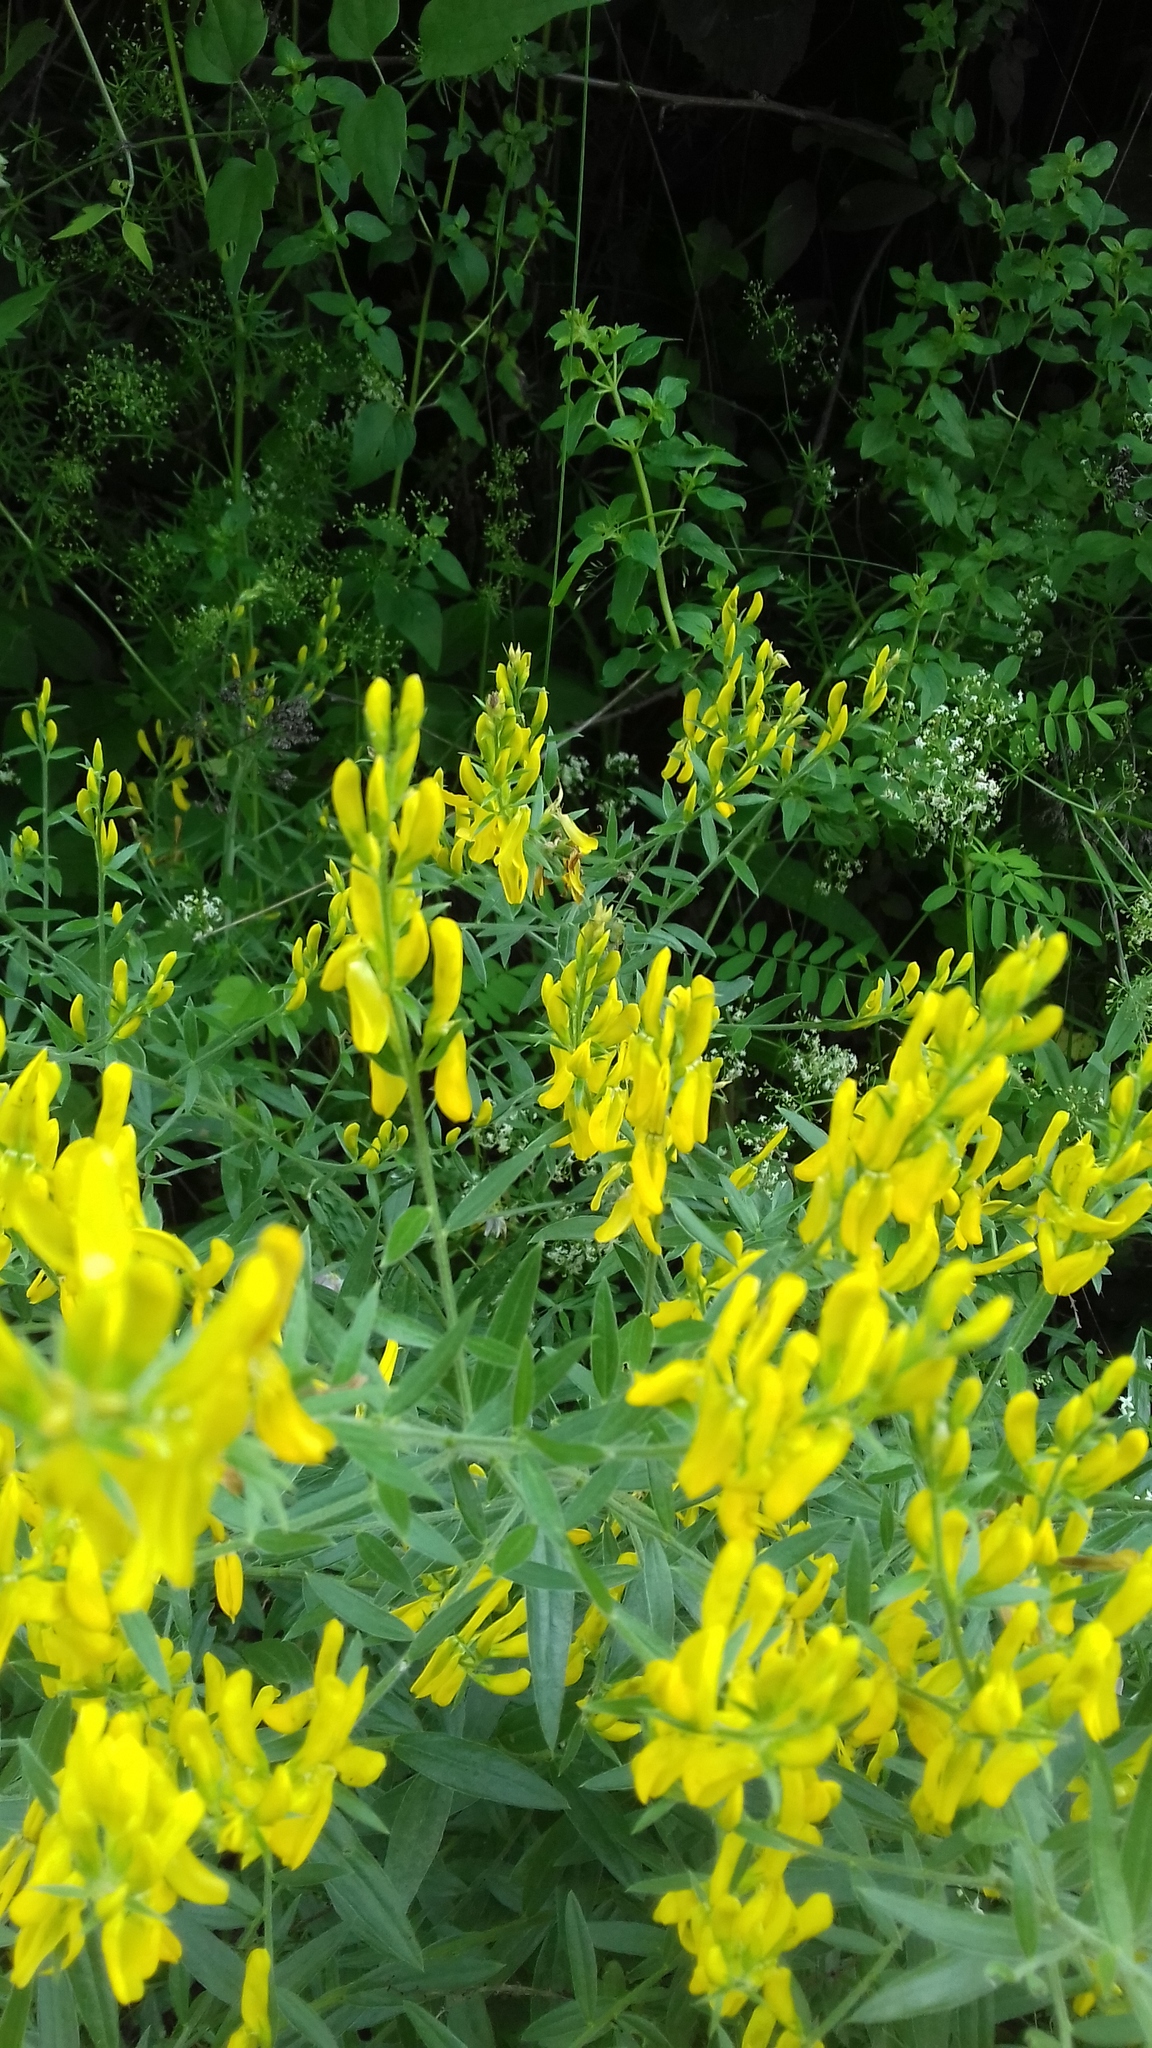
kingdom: Plantae
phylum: Tracheophyta
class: Magnoliopsida
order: Fabales
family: Fabaceae
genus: Genista
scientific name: Genista tinctoria
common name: Dyer's greenweed
